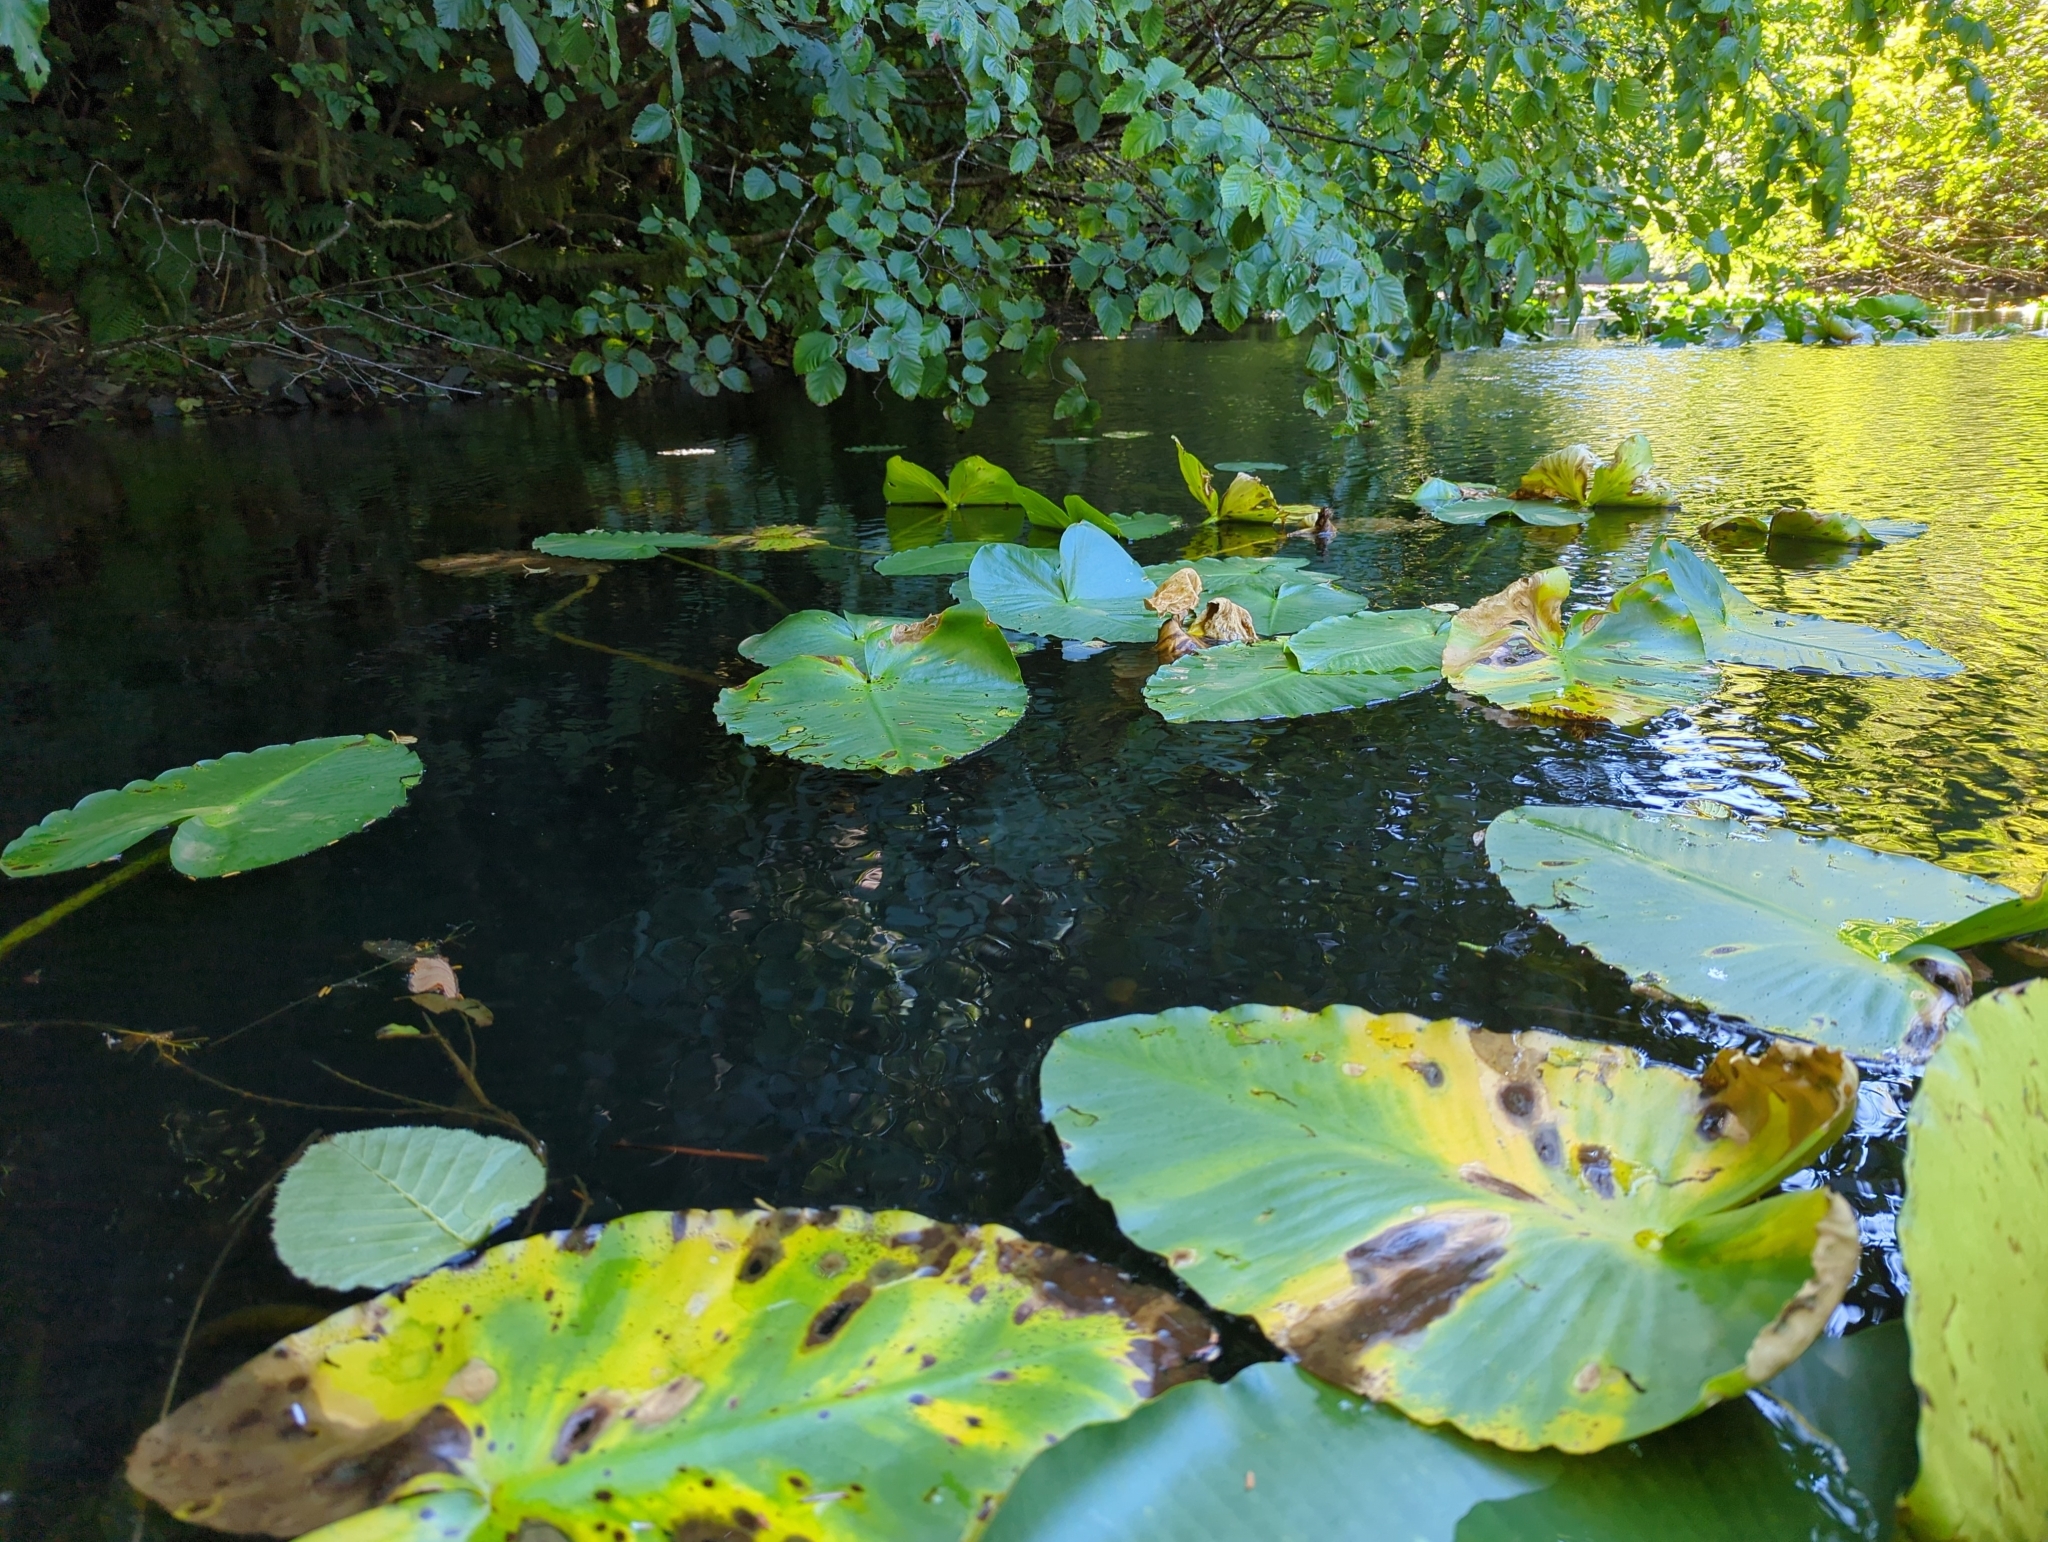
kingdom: Plantae
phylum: Tracheophyta
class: Magnoliopsida
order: Nymphaeales
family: Nymphaeaceae
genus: Nuphar
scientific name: Nuphar polysepala
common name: Rocky mountain cow-lily
